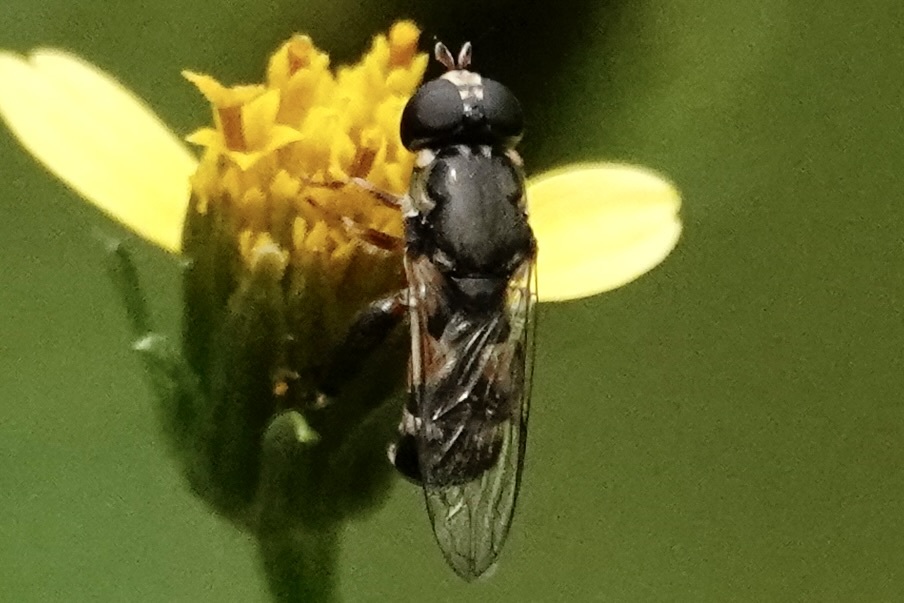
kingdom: Animalia
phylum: Arthropoda
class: Insecta
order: Diptera
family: Syrphidae
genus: Syritta
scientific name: Syritta pipiens
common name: Hover fly
